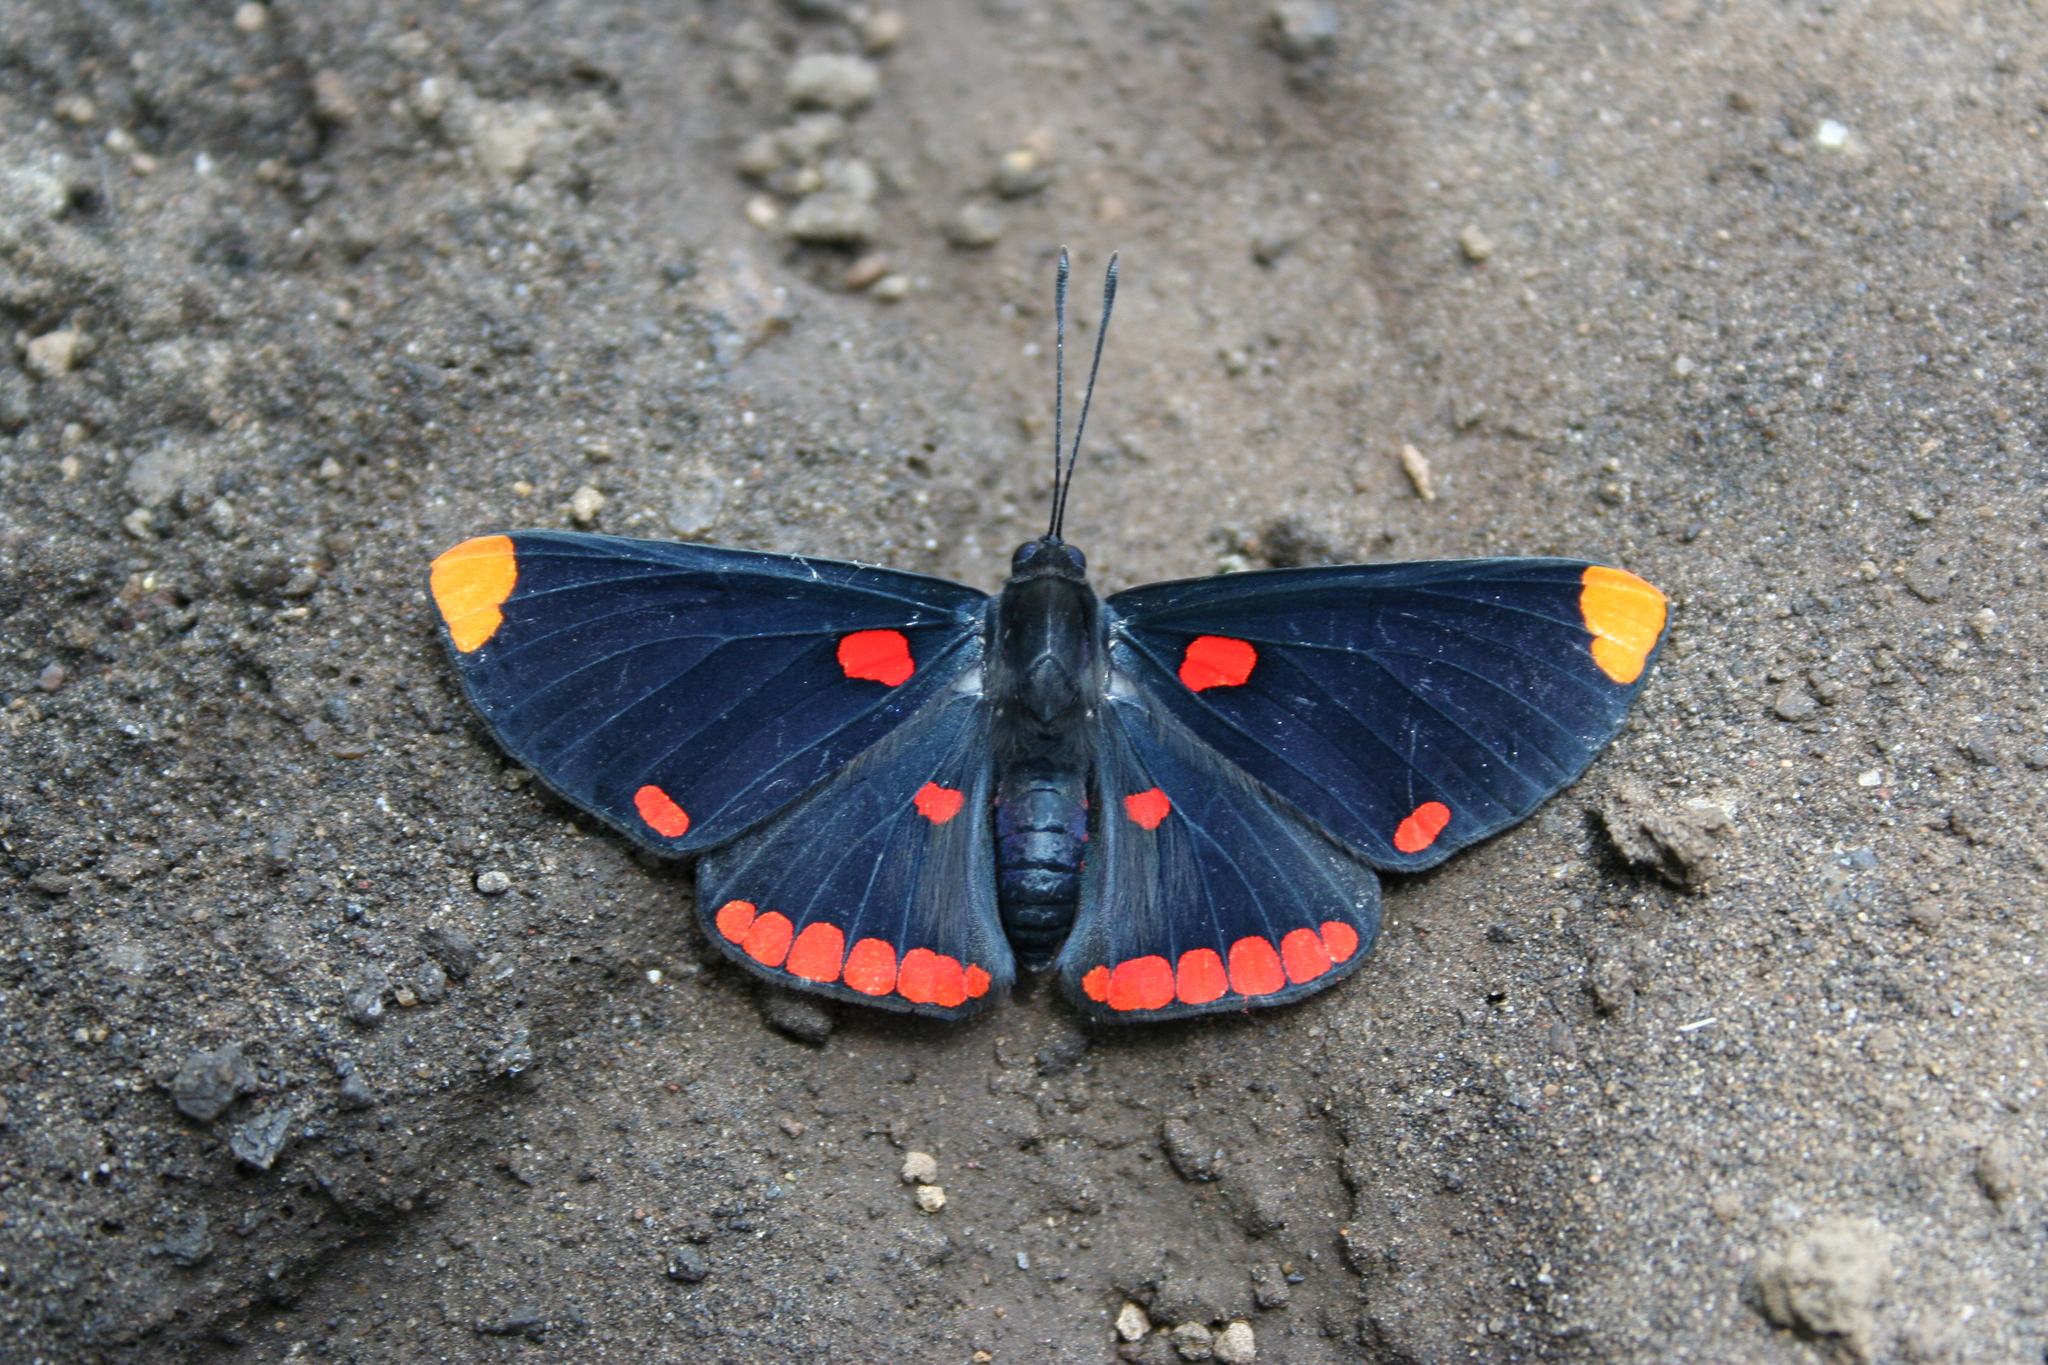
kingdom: Animalia
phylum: Arthropoda
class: Insecta
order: Lepidoptera
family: Lycaenidae
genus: Melanis
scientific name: Melanis pixe
